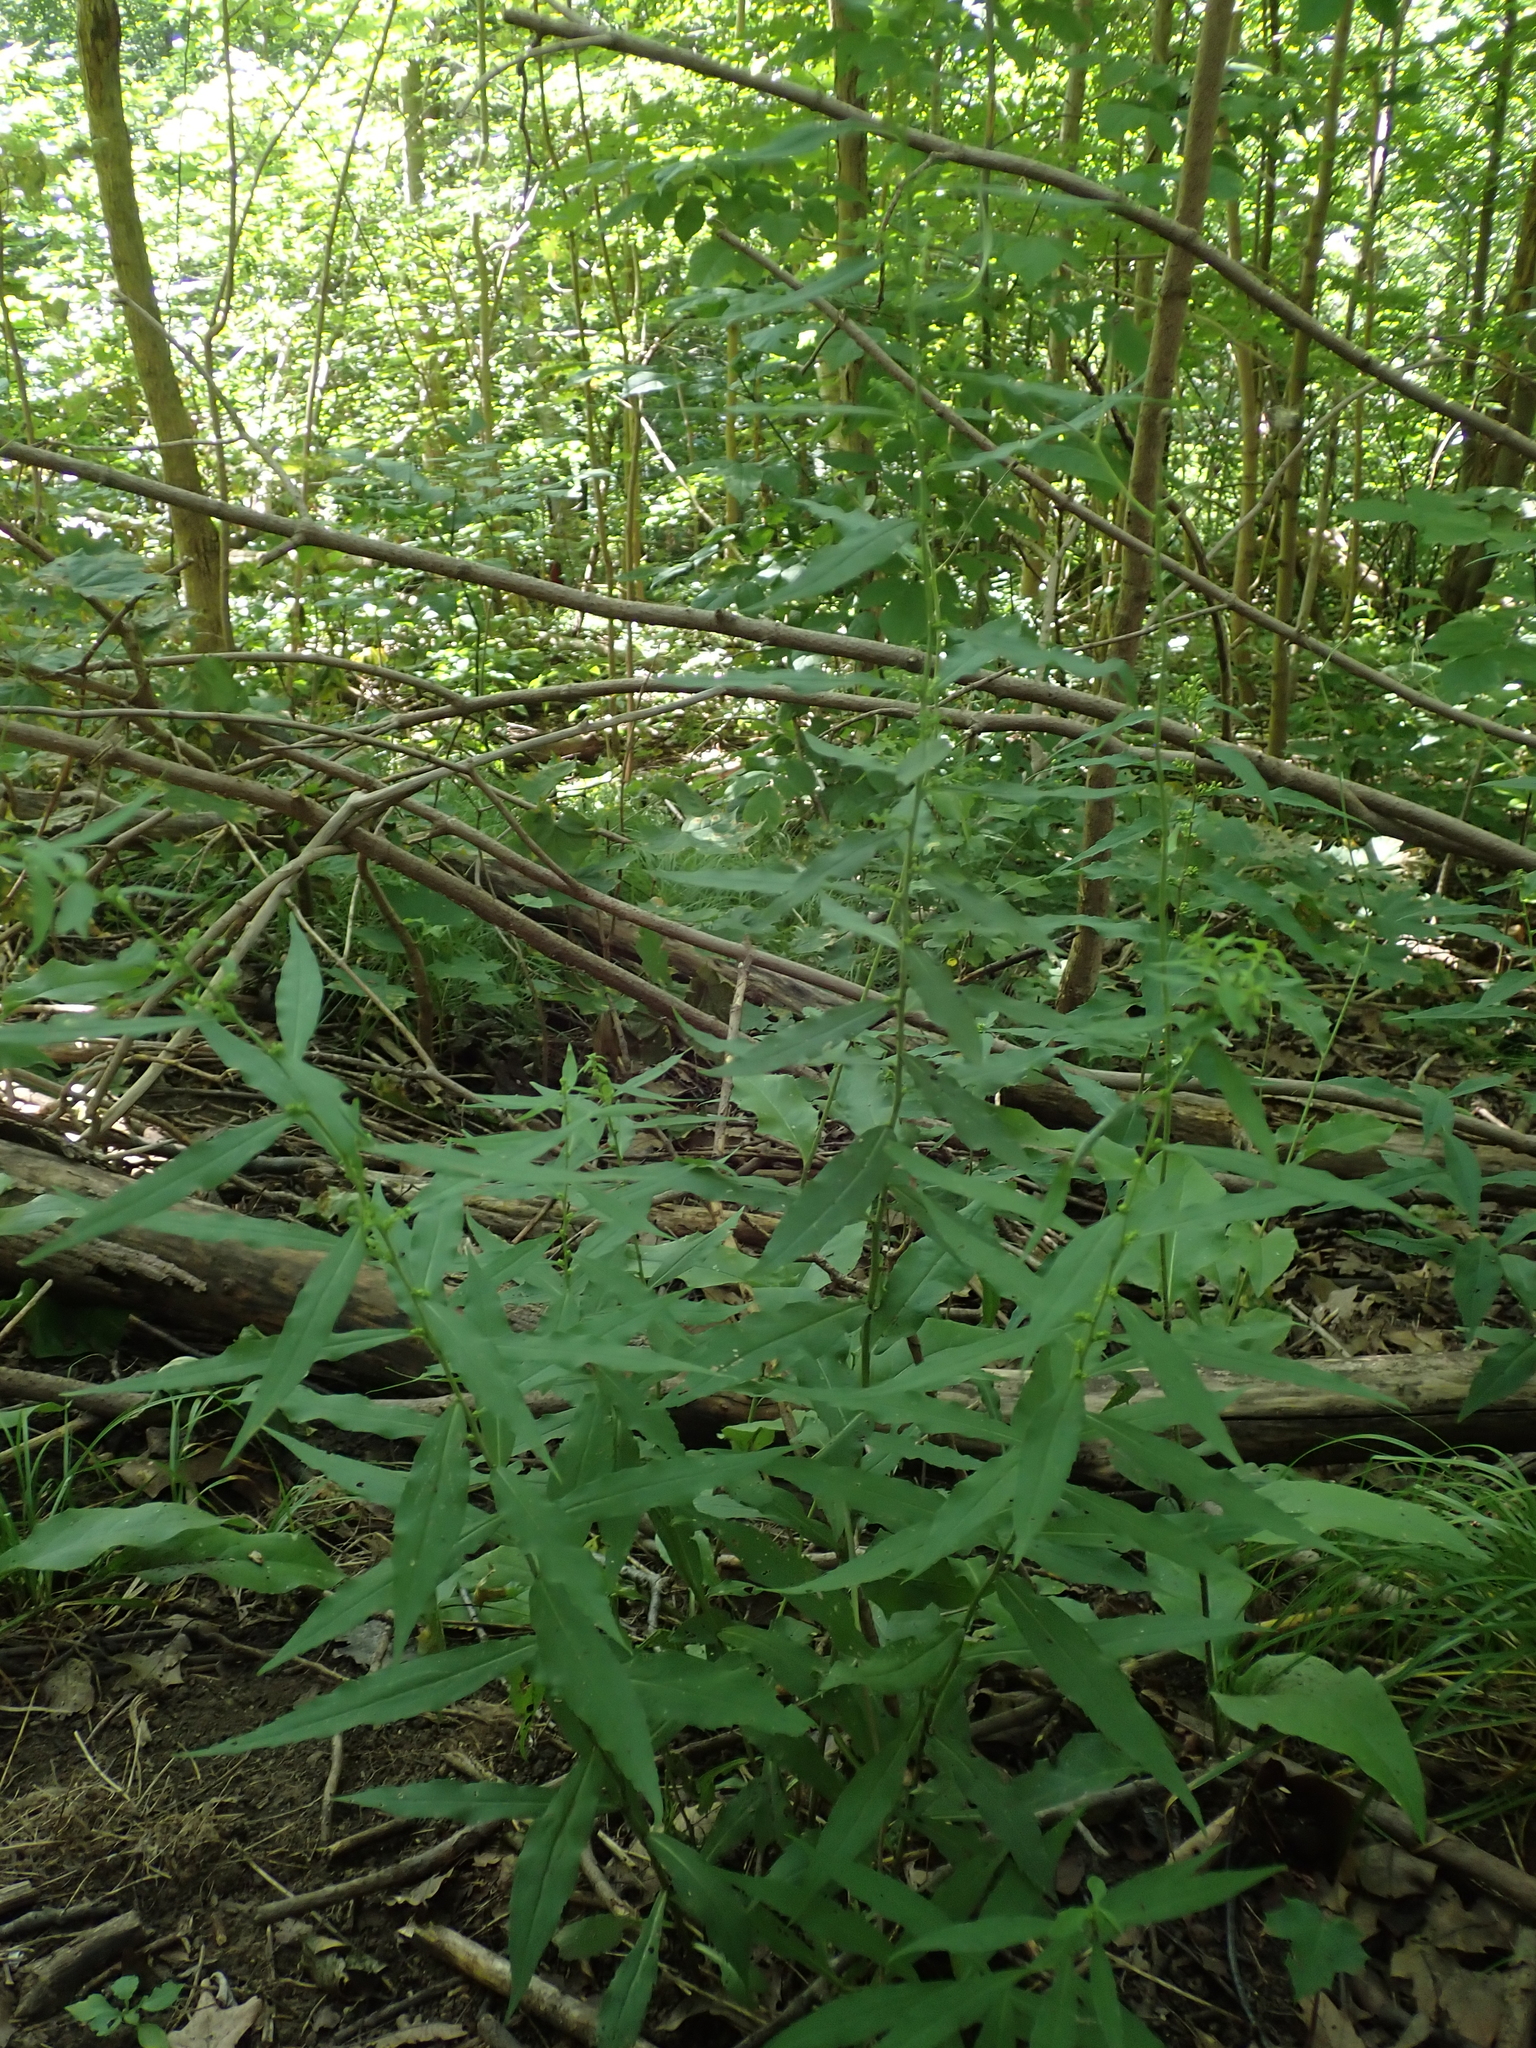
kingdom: Plantae
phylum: Tracheophyta
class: Magnoliopsida
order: Asterales
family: Asteraceae
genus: Solidago
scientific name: Solidago caesia
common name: Woodland goldenrod
